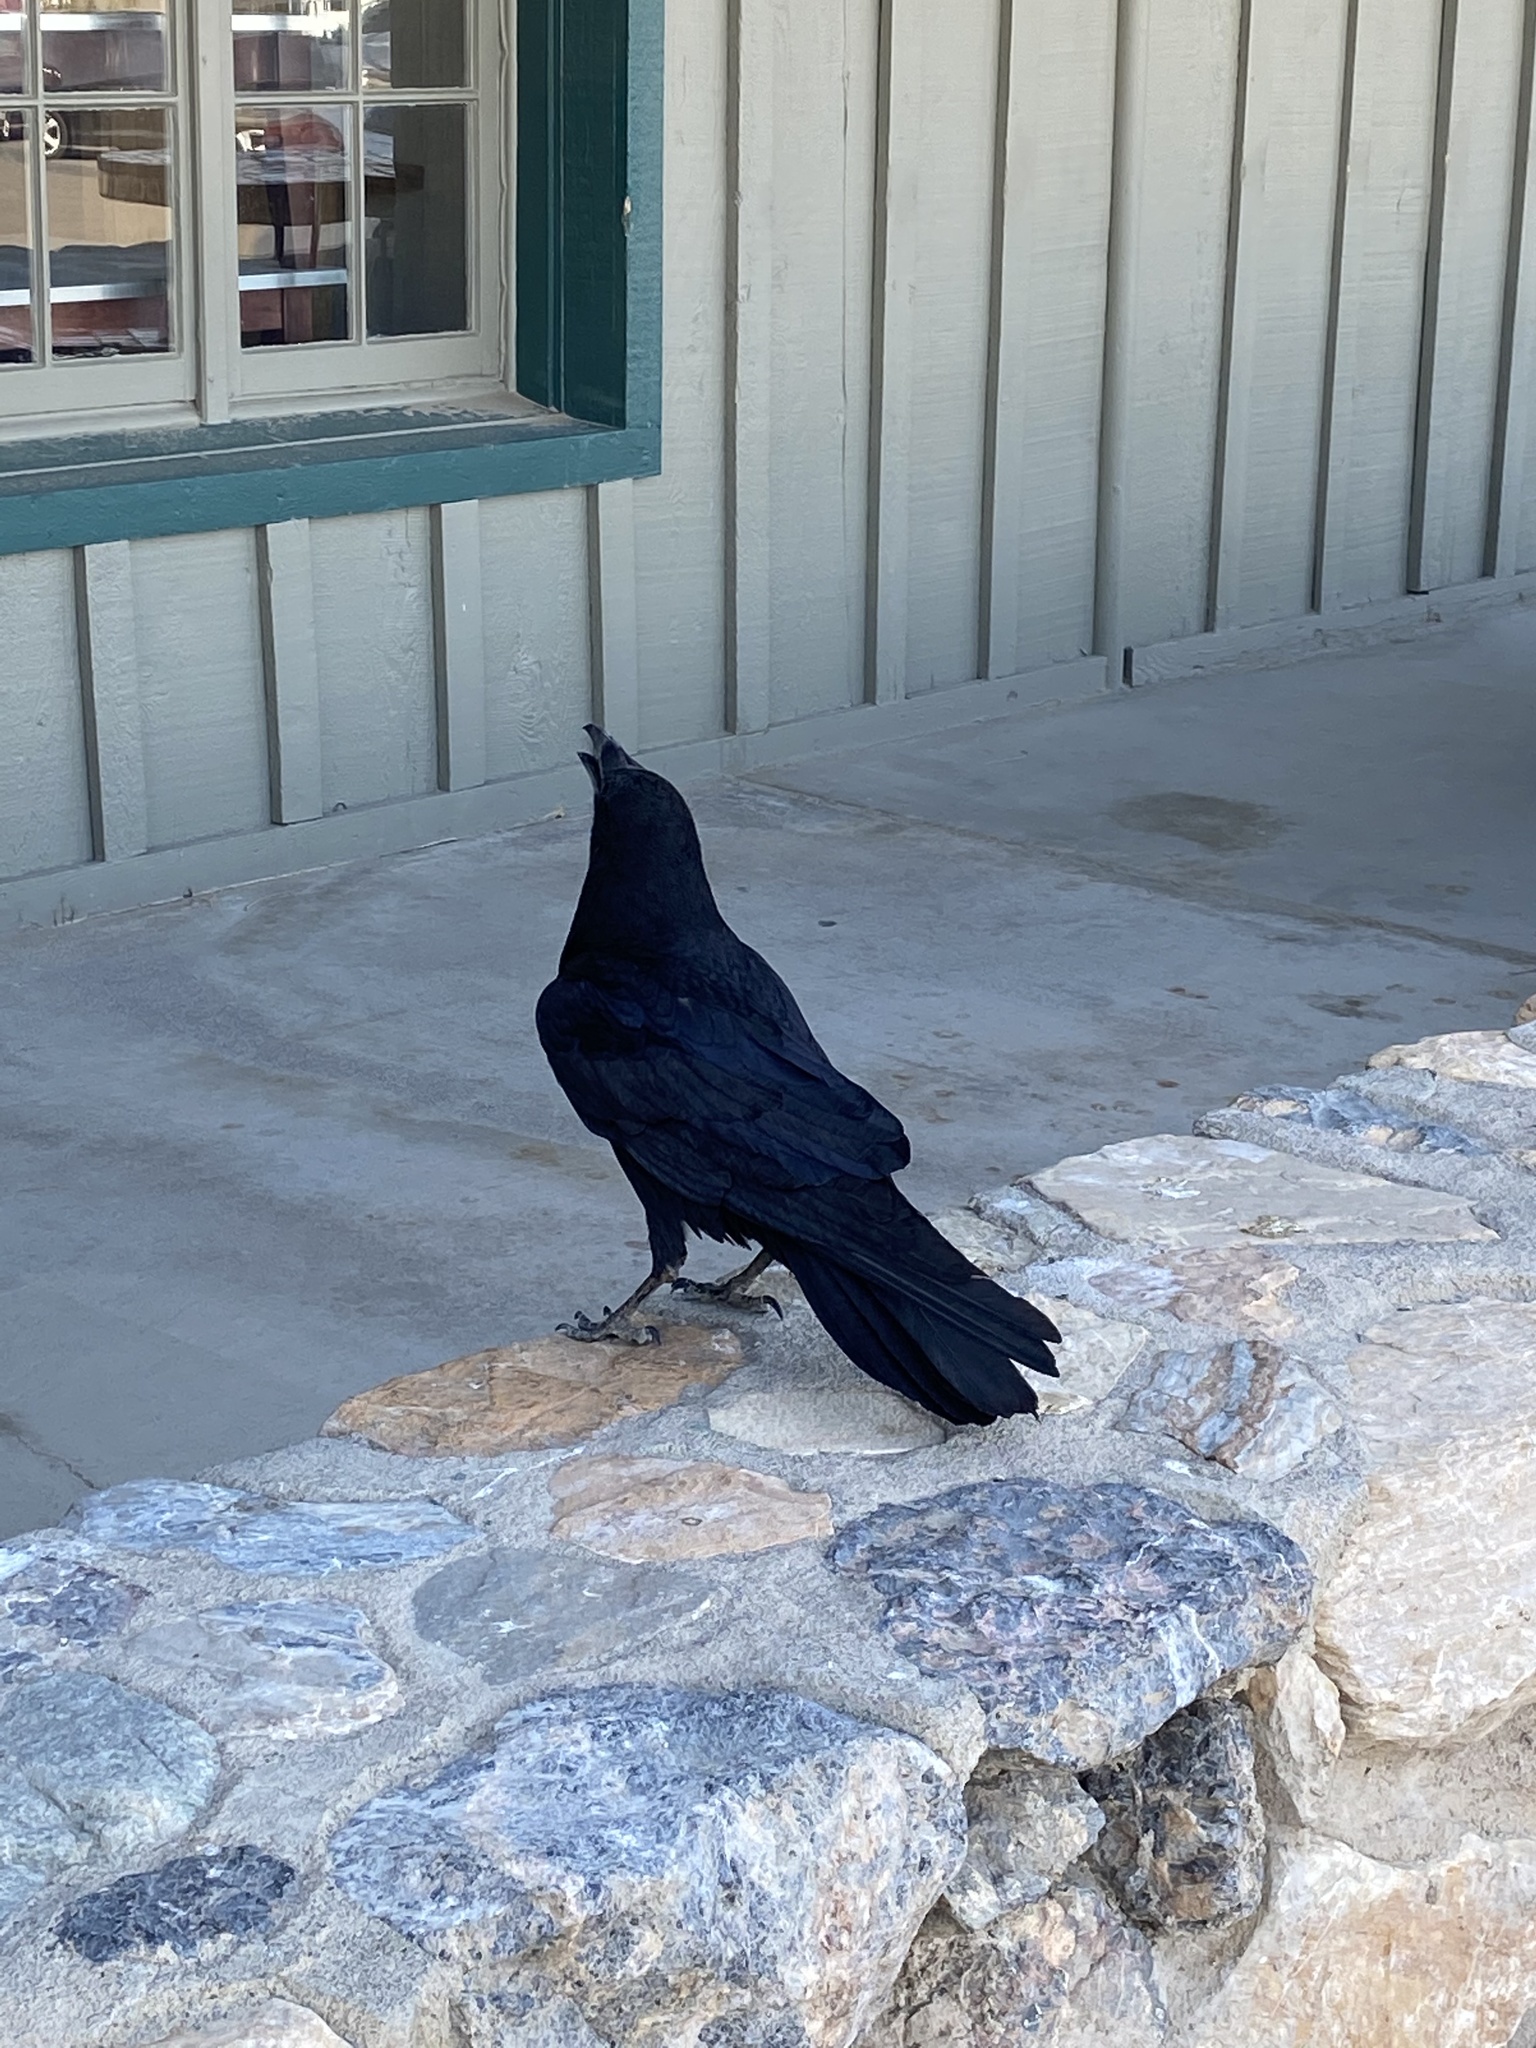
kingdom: Animalia
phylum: Chordata
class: Aves
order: Passeriformes
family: Corvidae
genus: Corvus
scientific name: Corvus corax
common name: Common raven
